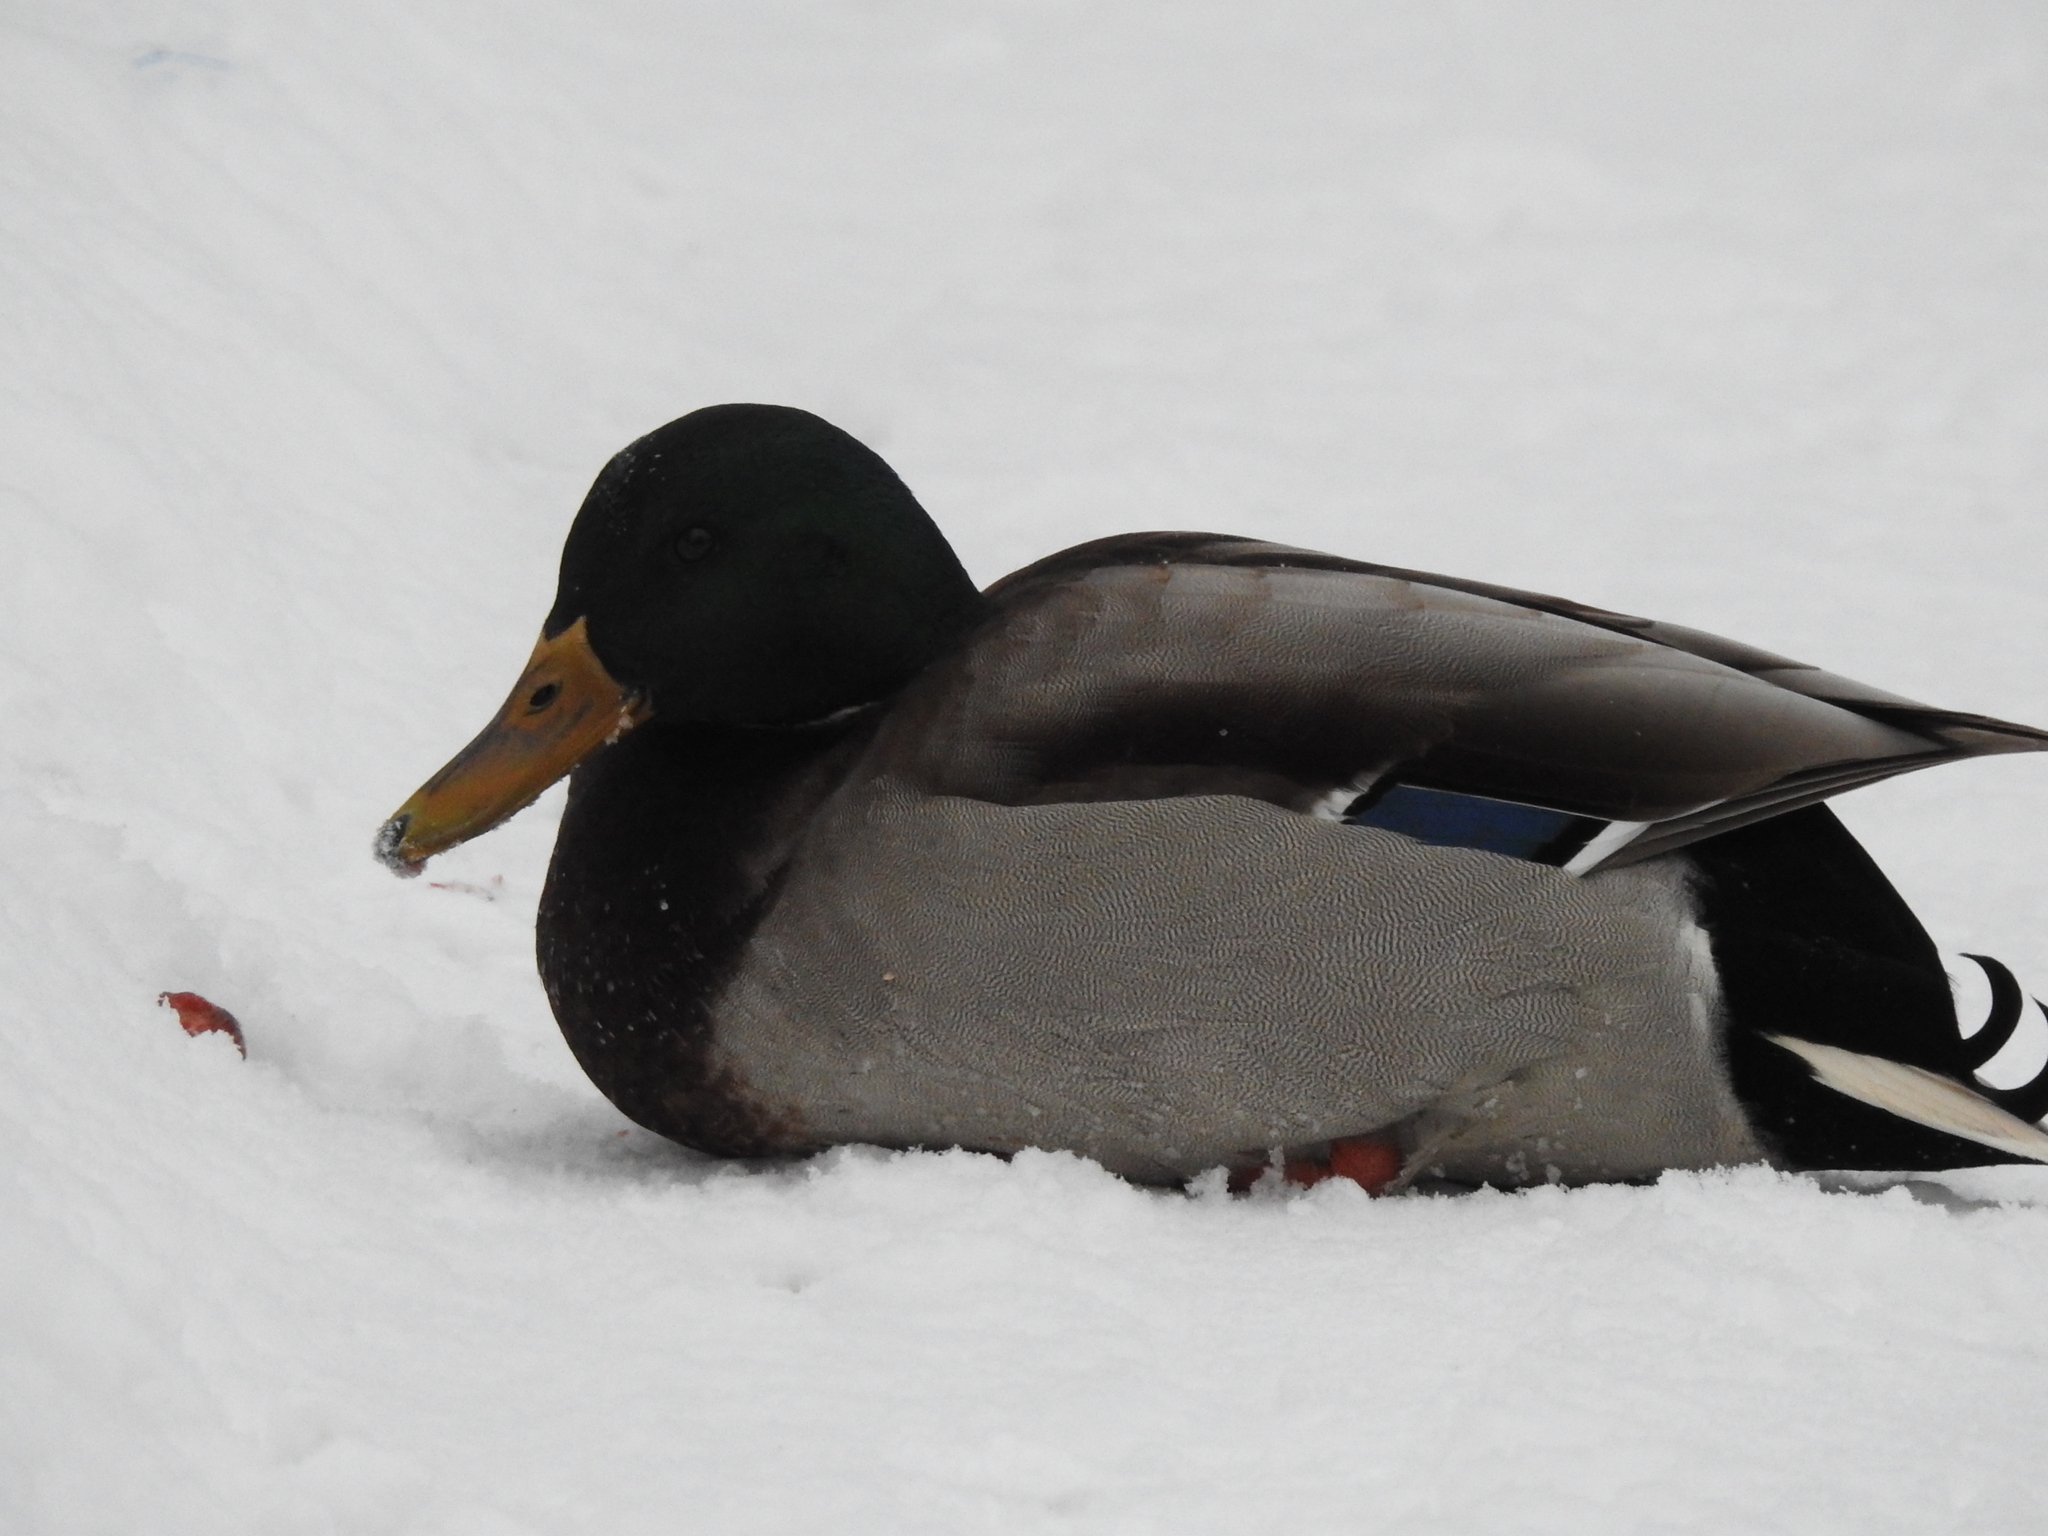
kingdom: Animalia
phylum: Chordata
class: Aves
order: Anseriformes
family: Anatidae
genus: Anas
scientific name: Anas platyrhynchos
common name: Mallard
